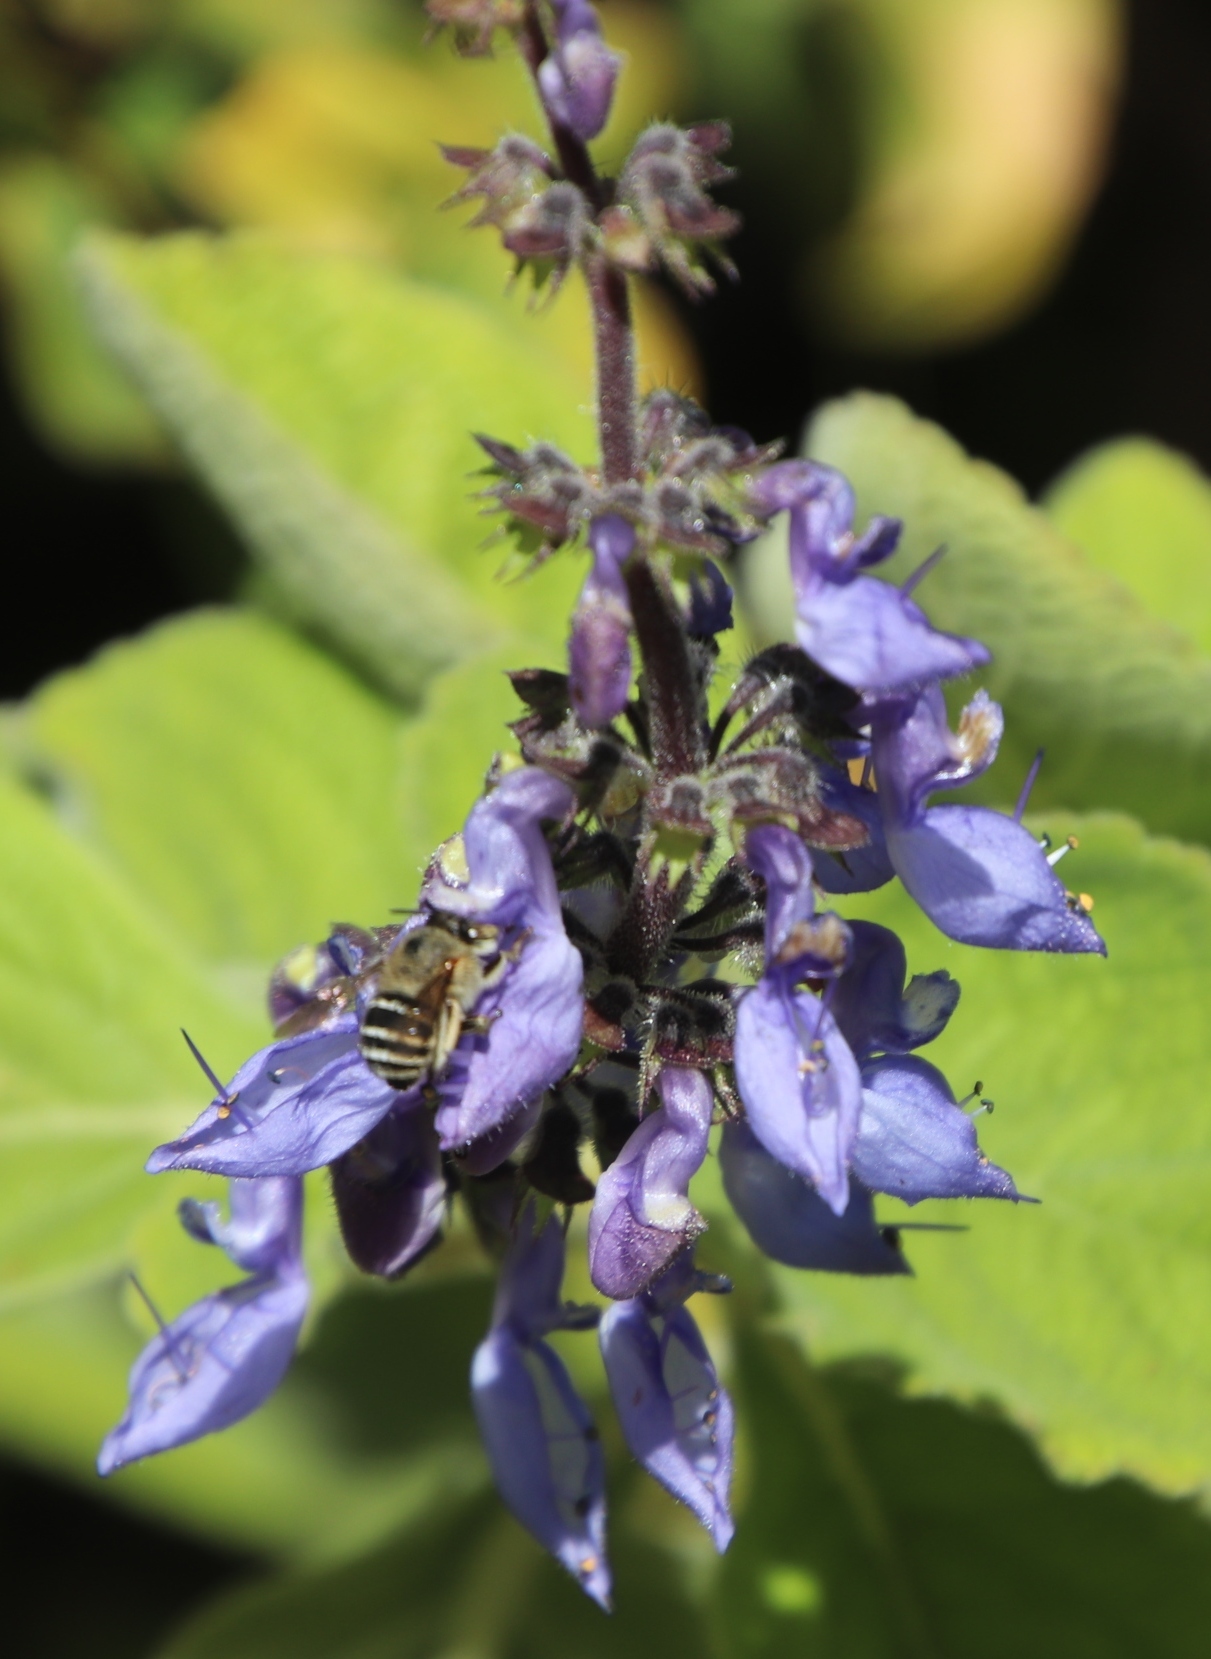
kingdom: Plantae
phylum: Tracheophyta
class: Magnoliopsida
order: Lamiales
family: Lamiaceae
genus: Coleus
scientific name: Coleus barbatus
